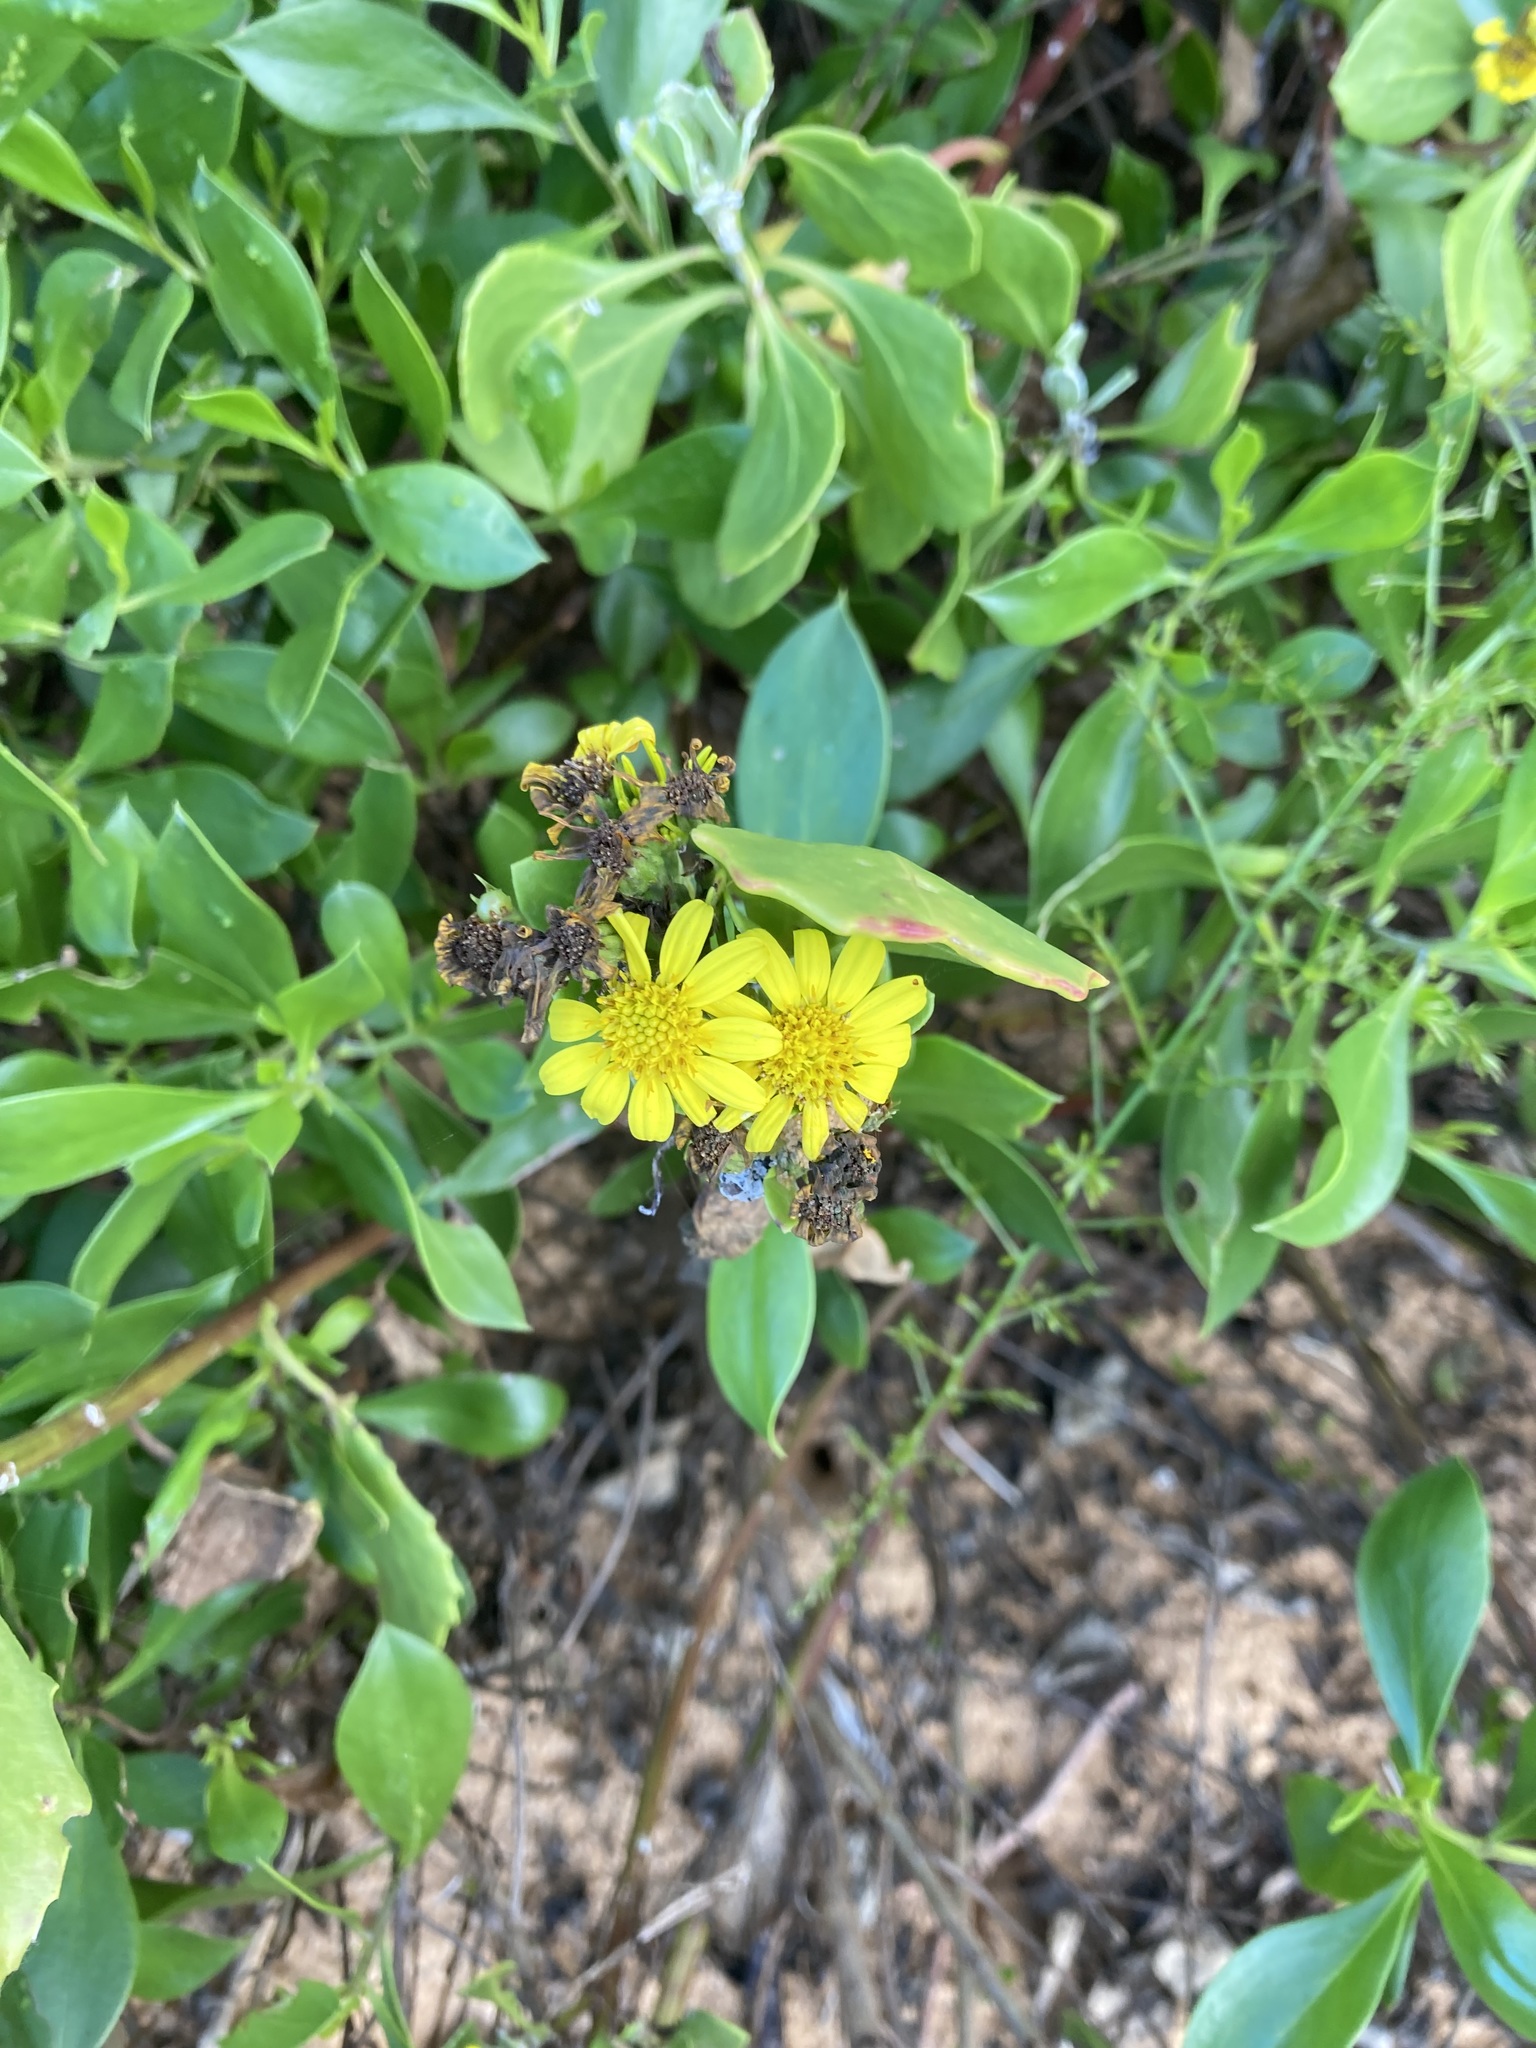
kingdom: Plantae
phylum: Tracheophyta
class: Magnoliopsida
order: Asterales
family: Asteraceae
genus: Osteospermum
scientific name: Osteospermum moniliferum
